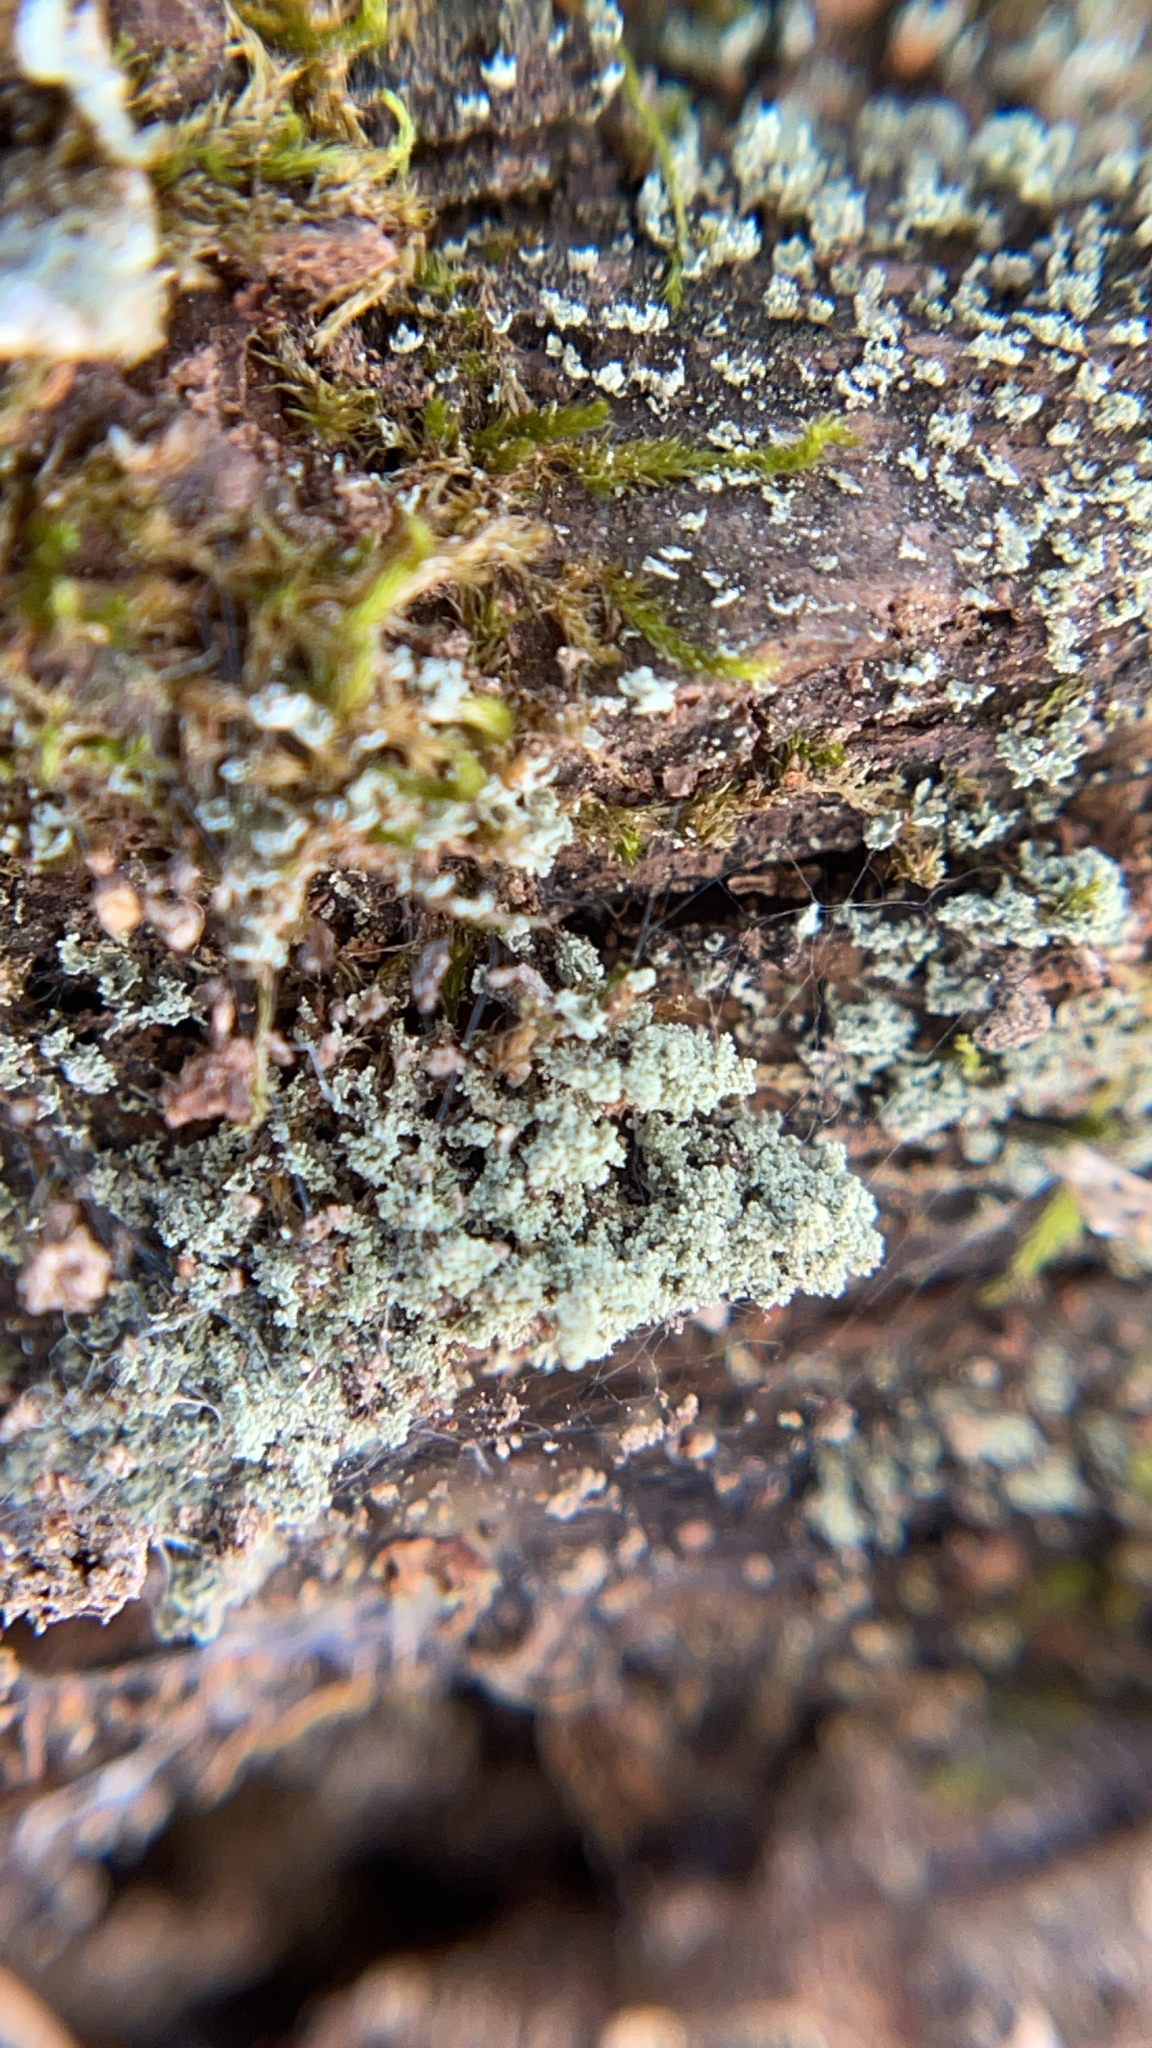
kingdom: Fungi
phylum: Ascomycota
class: Lecanoromycetes
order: Lecanorales
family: Cladoniaceae
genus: Cladonia
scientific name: Cladonia
